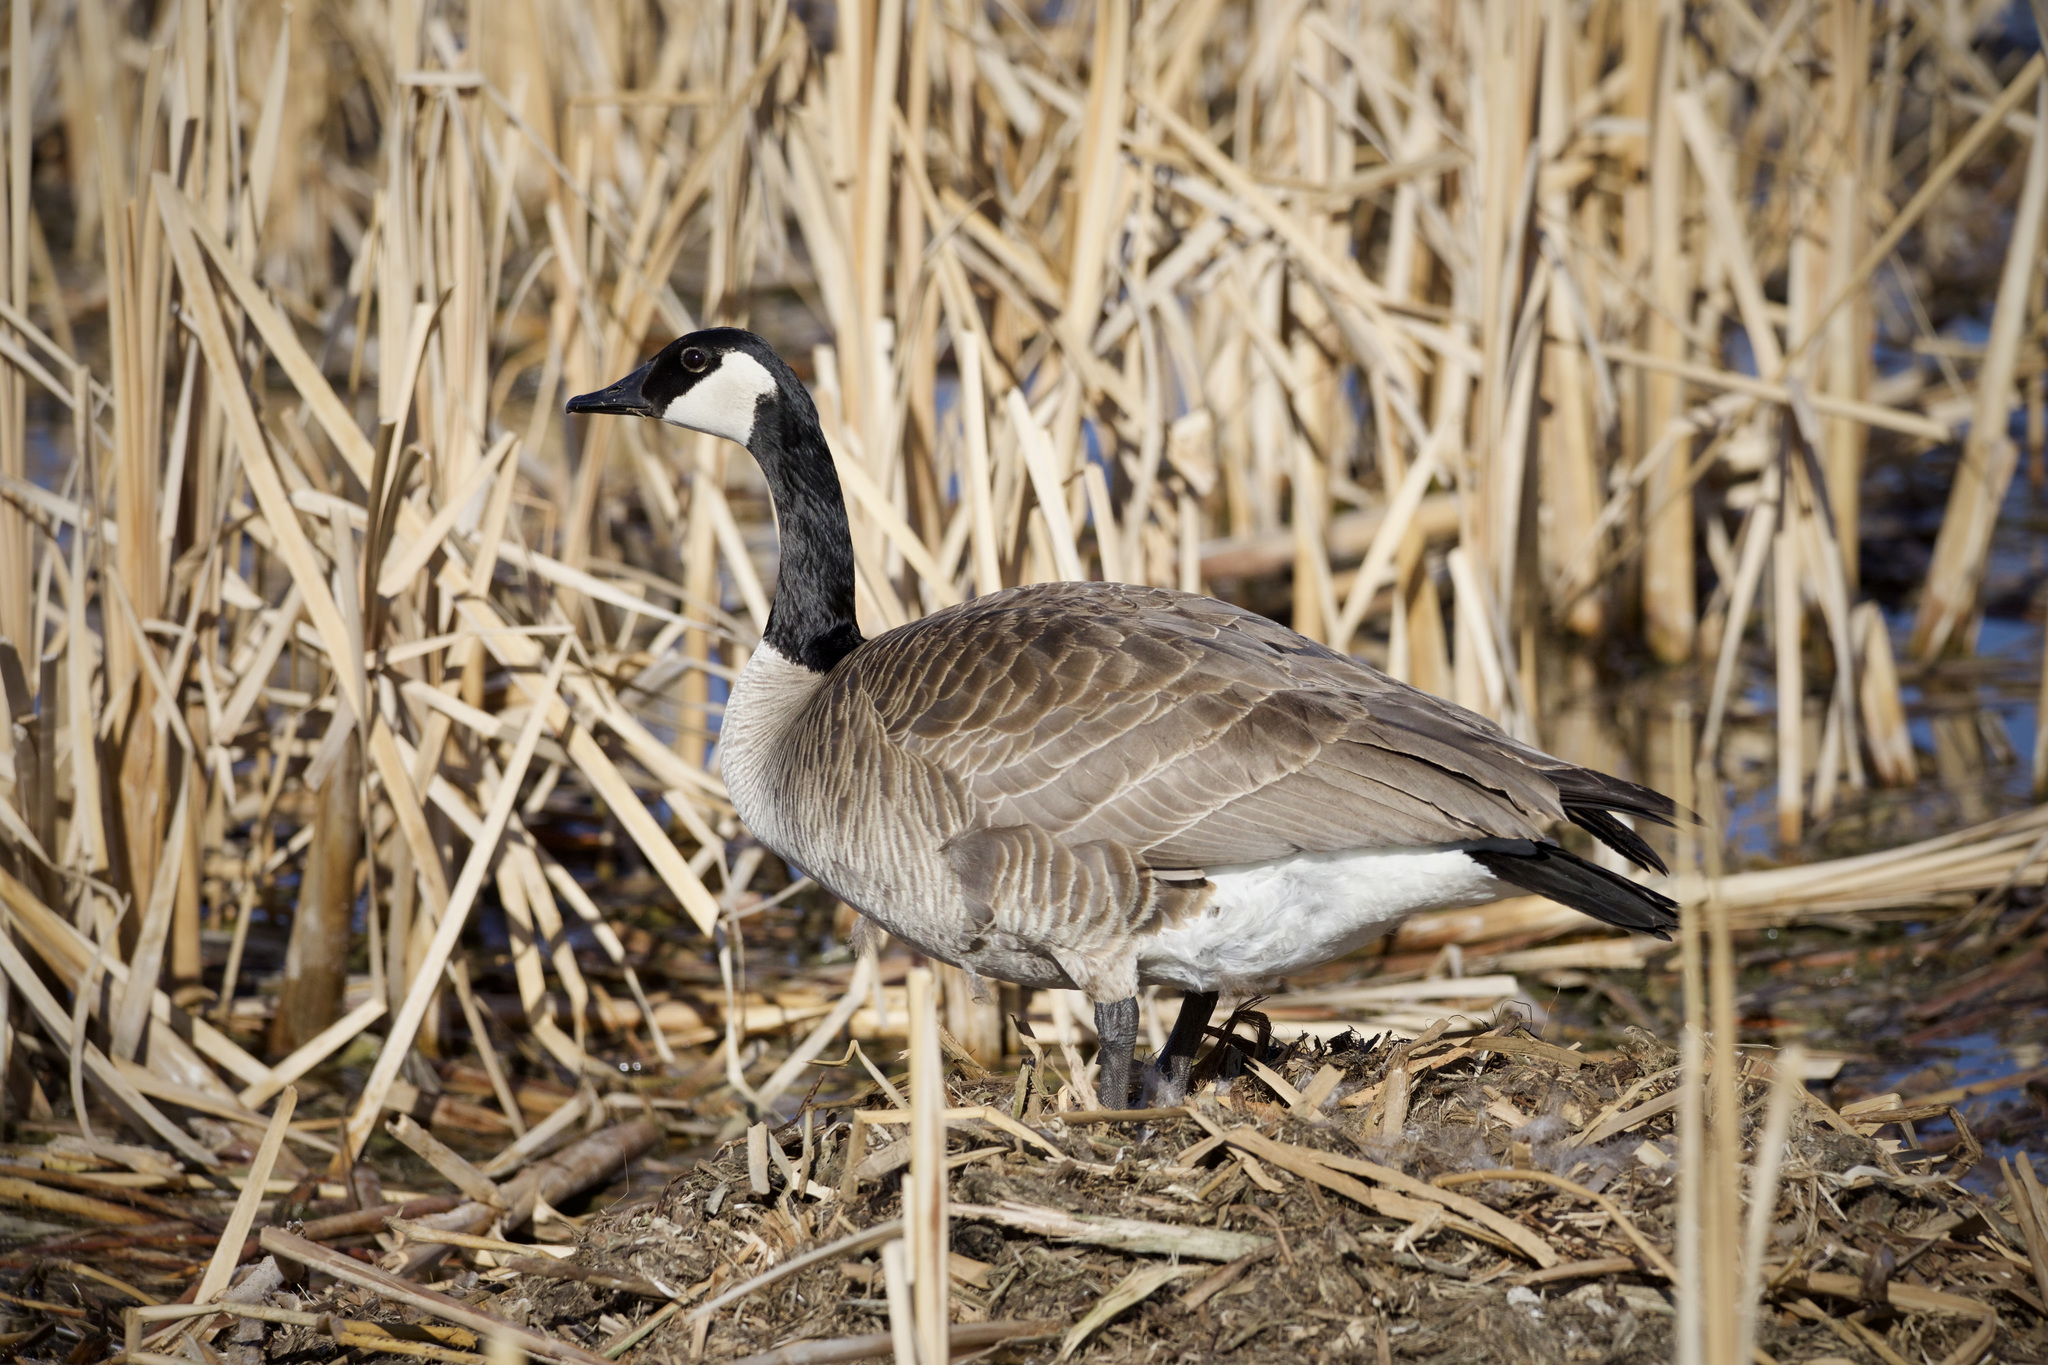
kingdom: Animalia
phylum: Chordata
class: Aves
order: Anseriformes
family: Anatidae
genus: Branta
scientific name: Branta canadensis
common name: Canada goose
